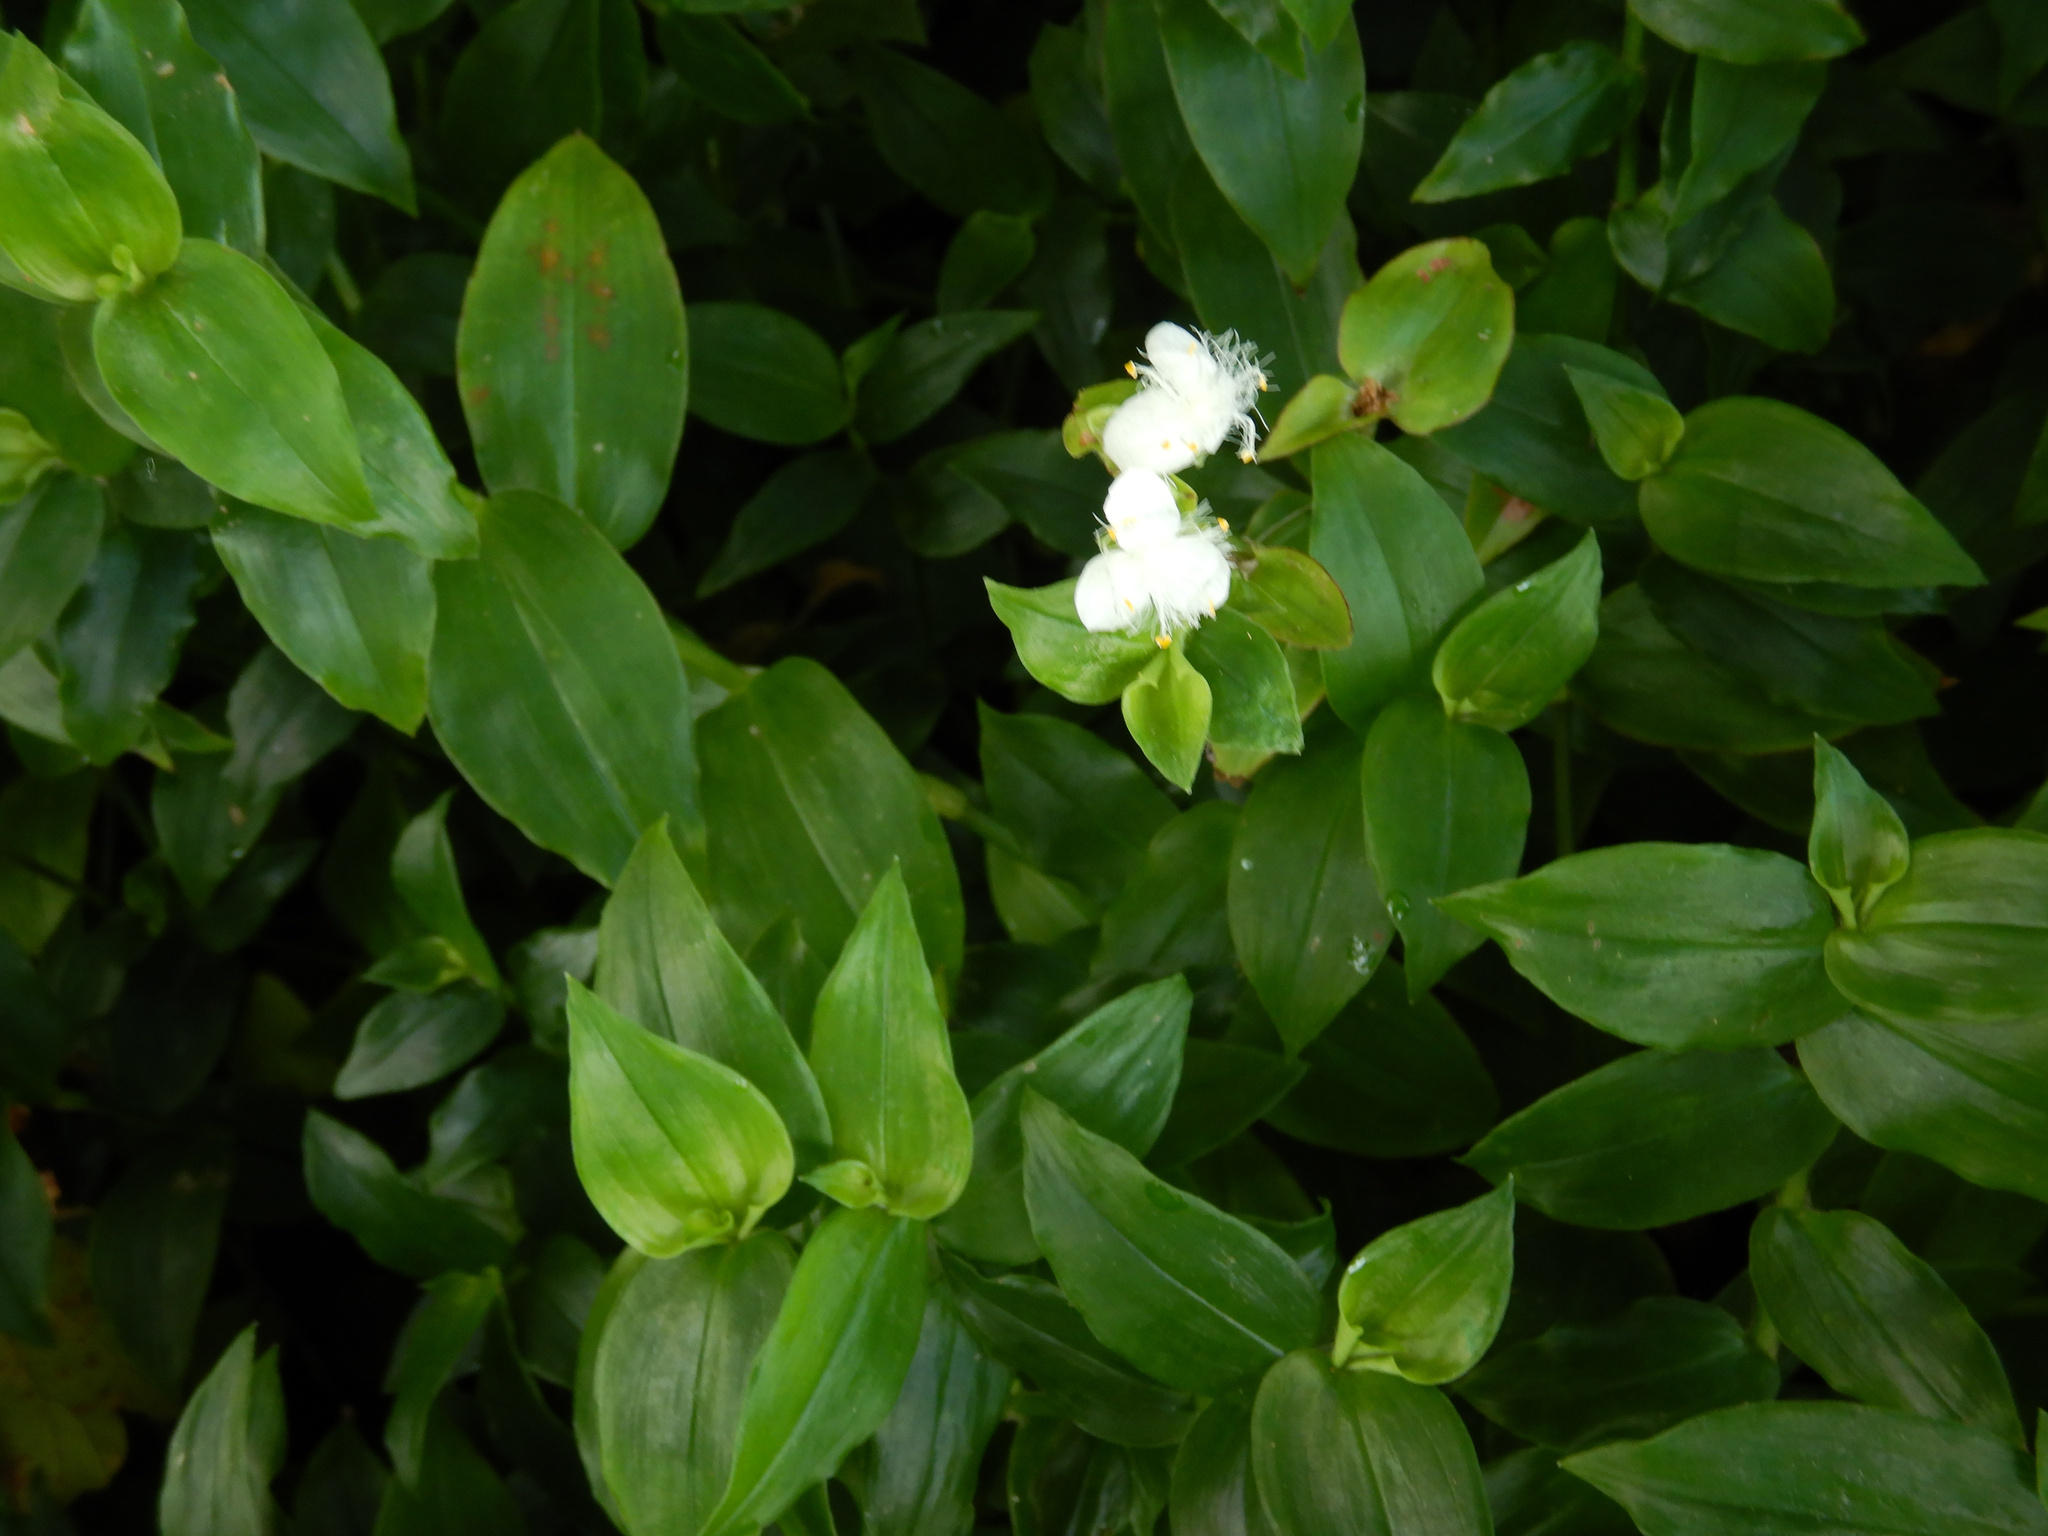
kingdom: Plantae
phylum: Tracheophyta
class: Liliopsida
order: Commelinales
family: Commelinaceae
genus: Tradescantia
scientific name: Tradescantia fluminensis
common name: Wandering-jew
